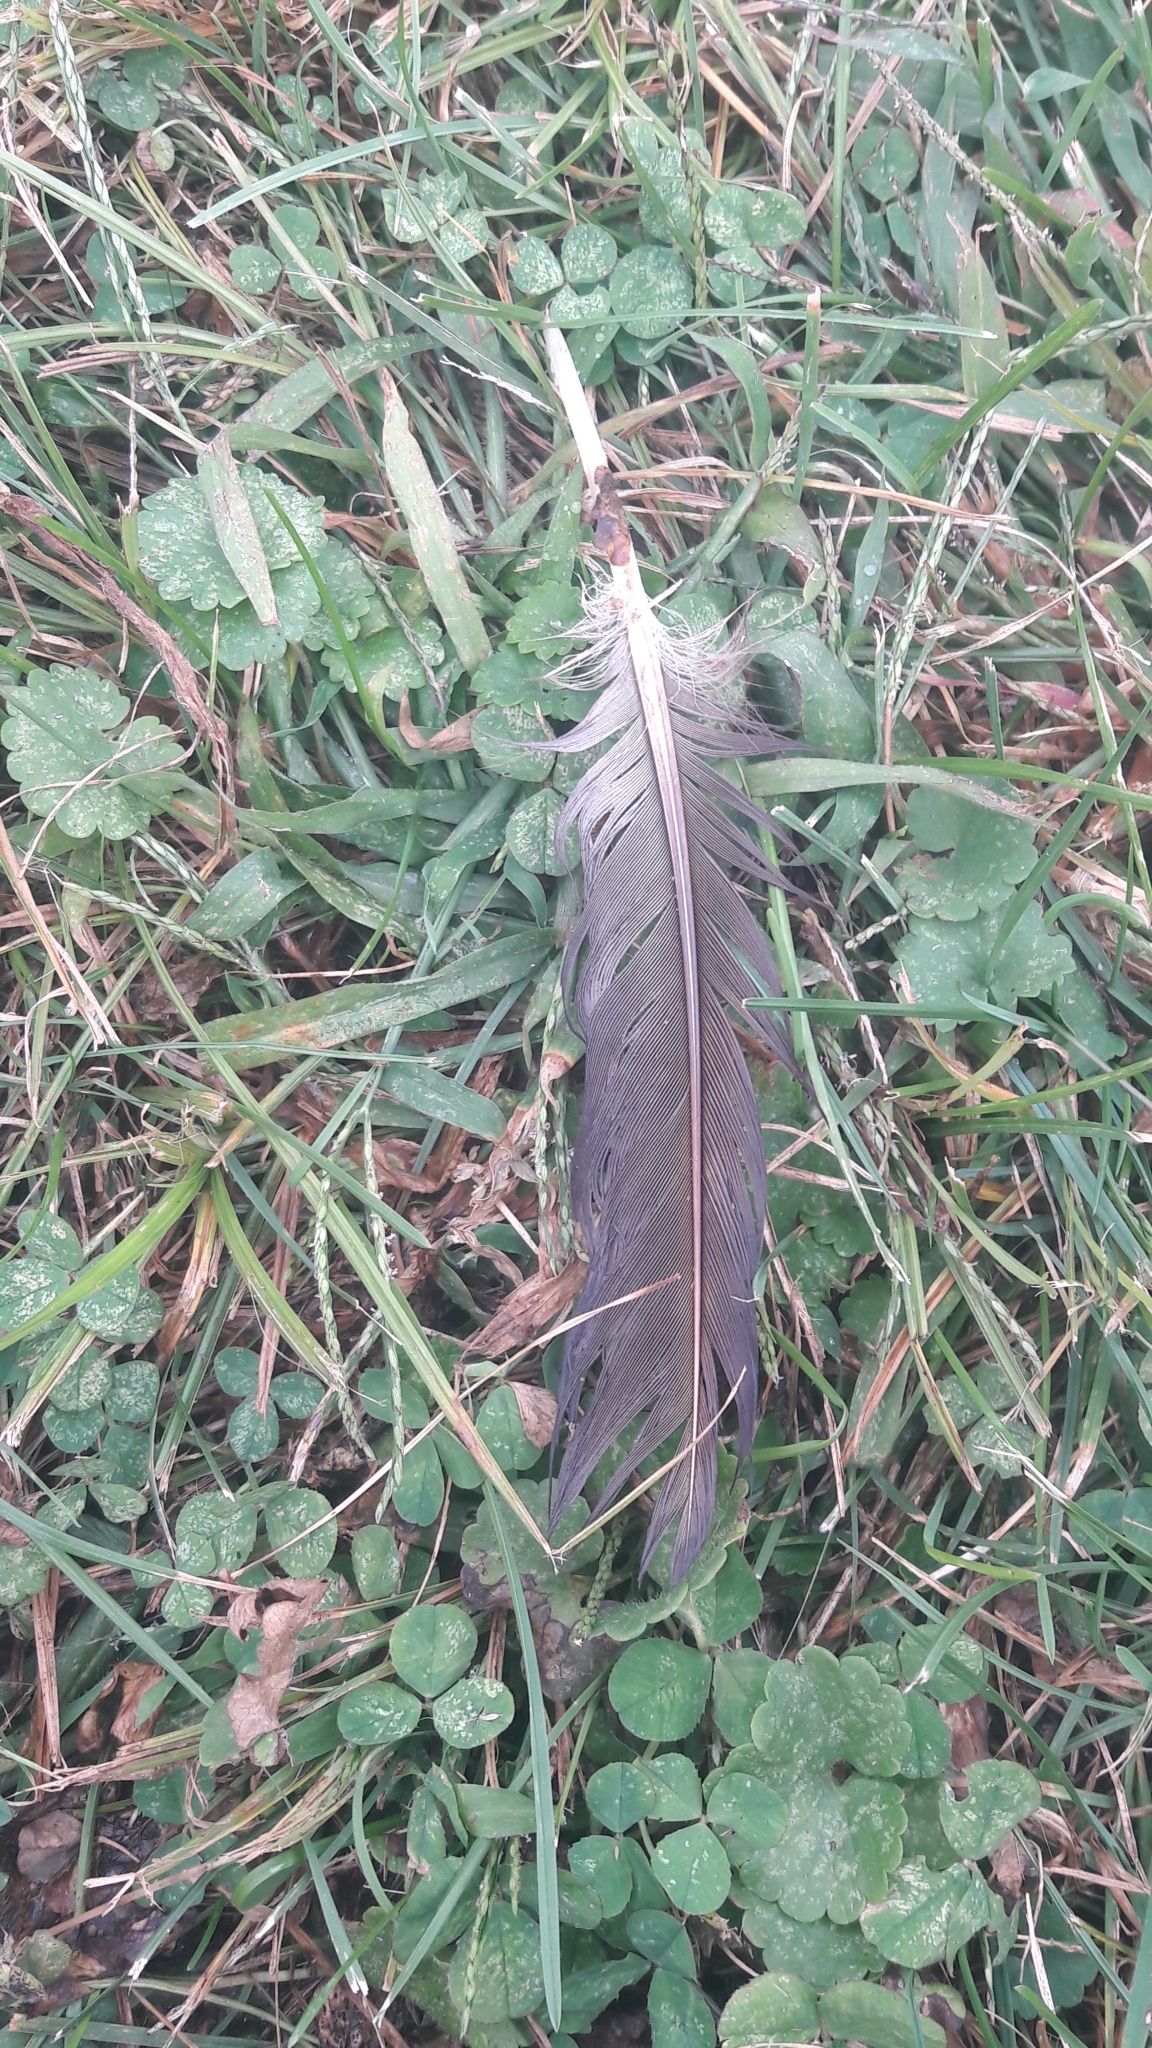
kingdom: Animalia
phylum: Chordata
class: Aves
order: Anseriformes
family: Anatidae
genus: Branta
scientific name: Branta canadensis
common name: Canada goose
